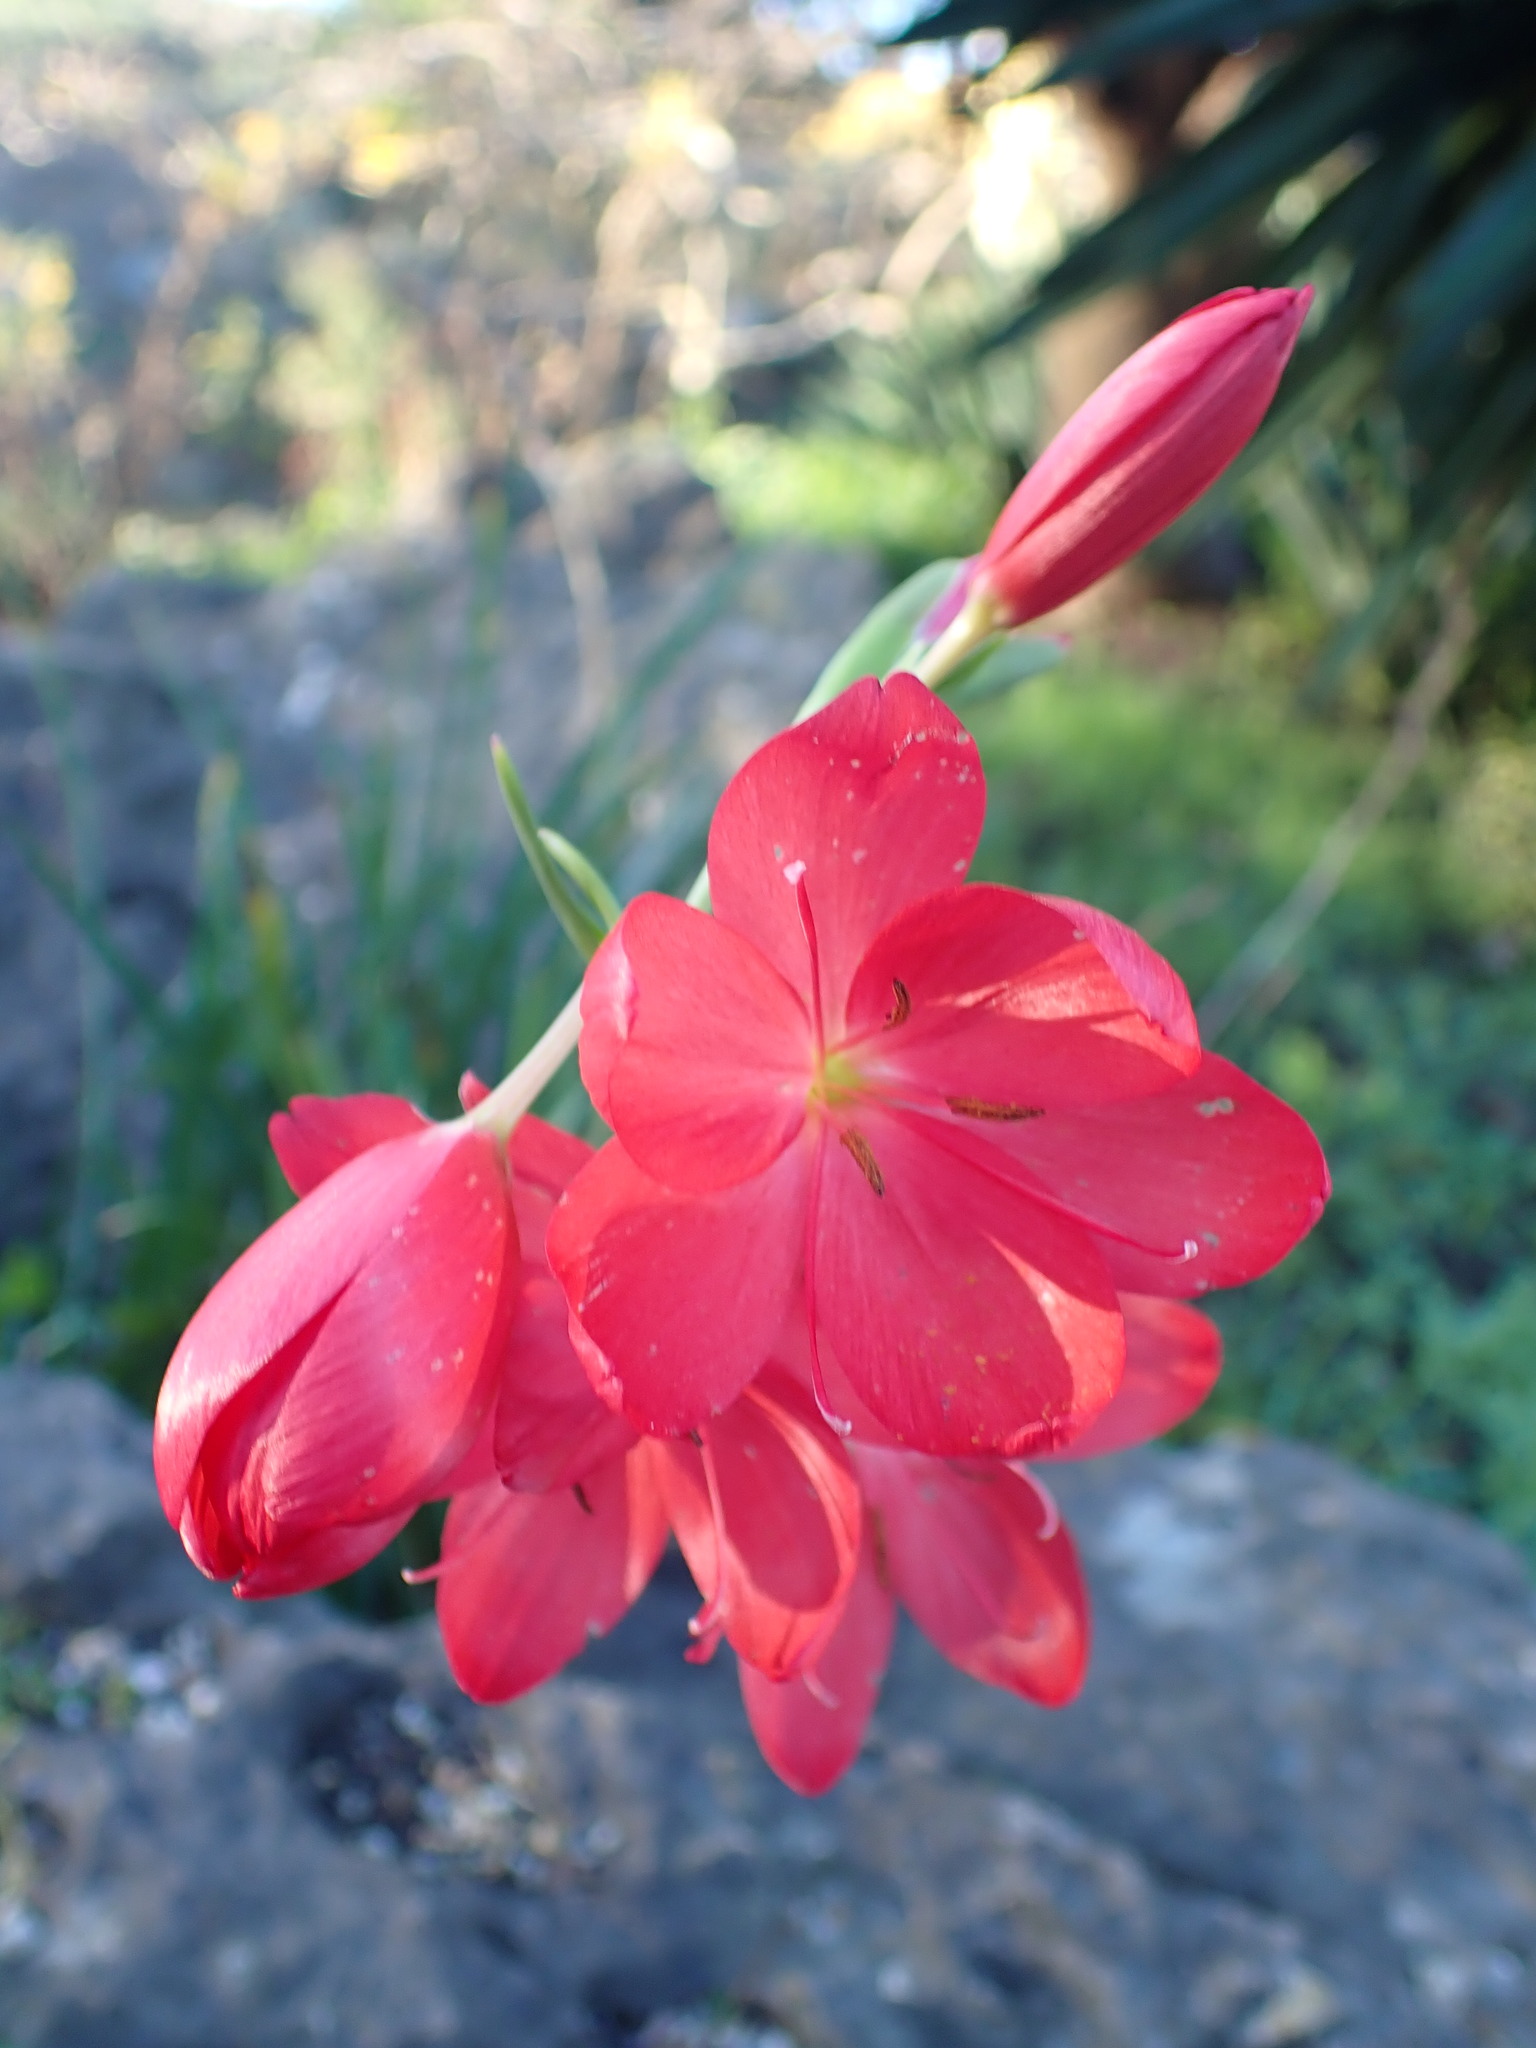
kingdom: Plantae
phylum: Tracheophyta
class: Liliopsida
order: Asparagales
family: Iridaceae
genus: Hesperantha
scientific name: Hesperantha coccinea
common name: River-lily
